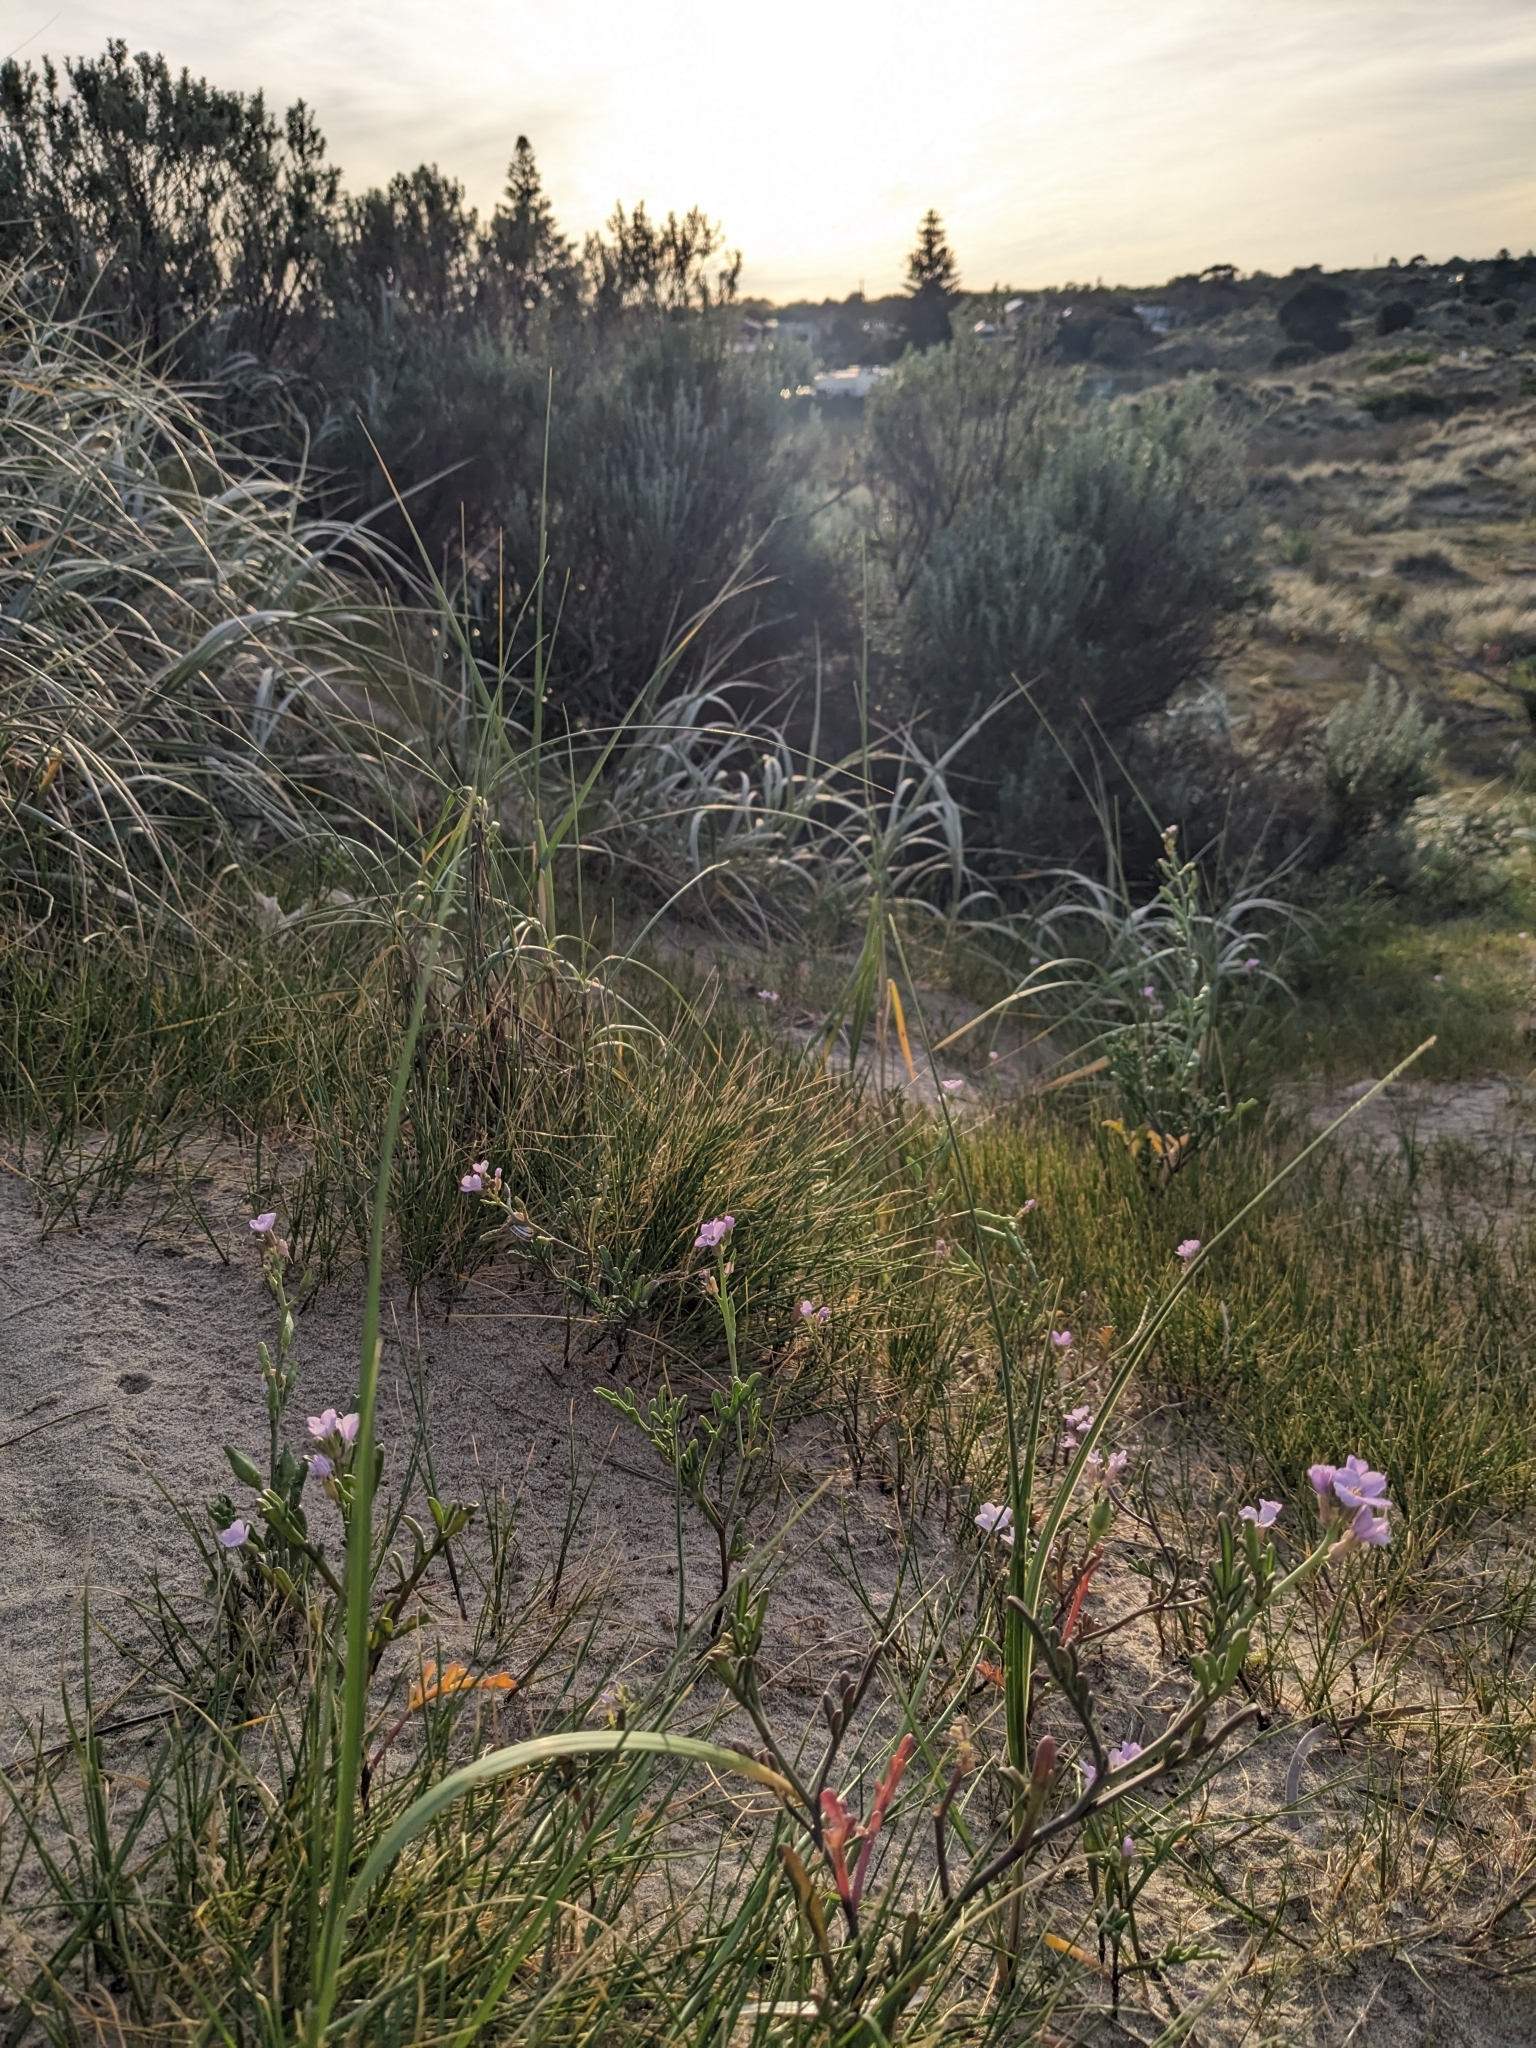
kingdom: Plantae
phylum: Tracheophyta
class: Magnoliopsida
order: Brassicales
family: Brassicaceae
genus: Cakile
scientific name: Cakile maritima
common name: Sea rocket
